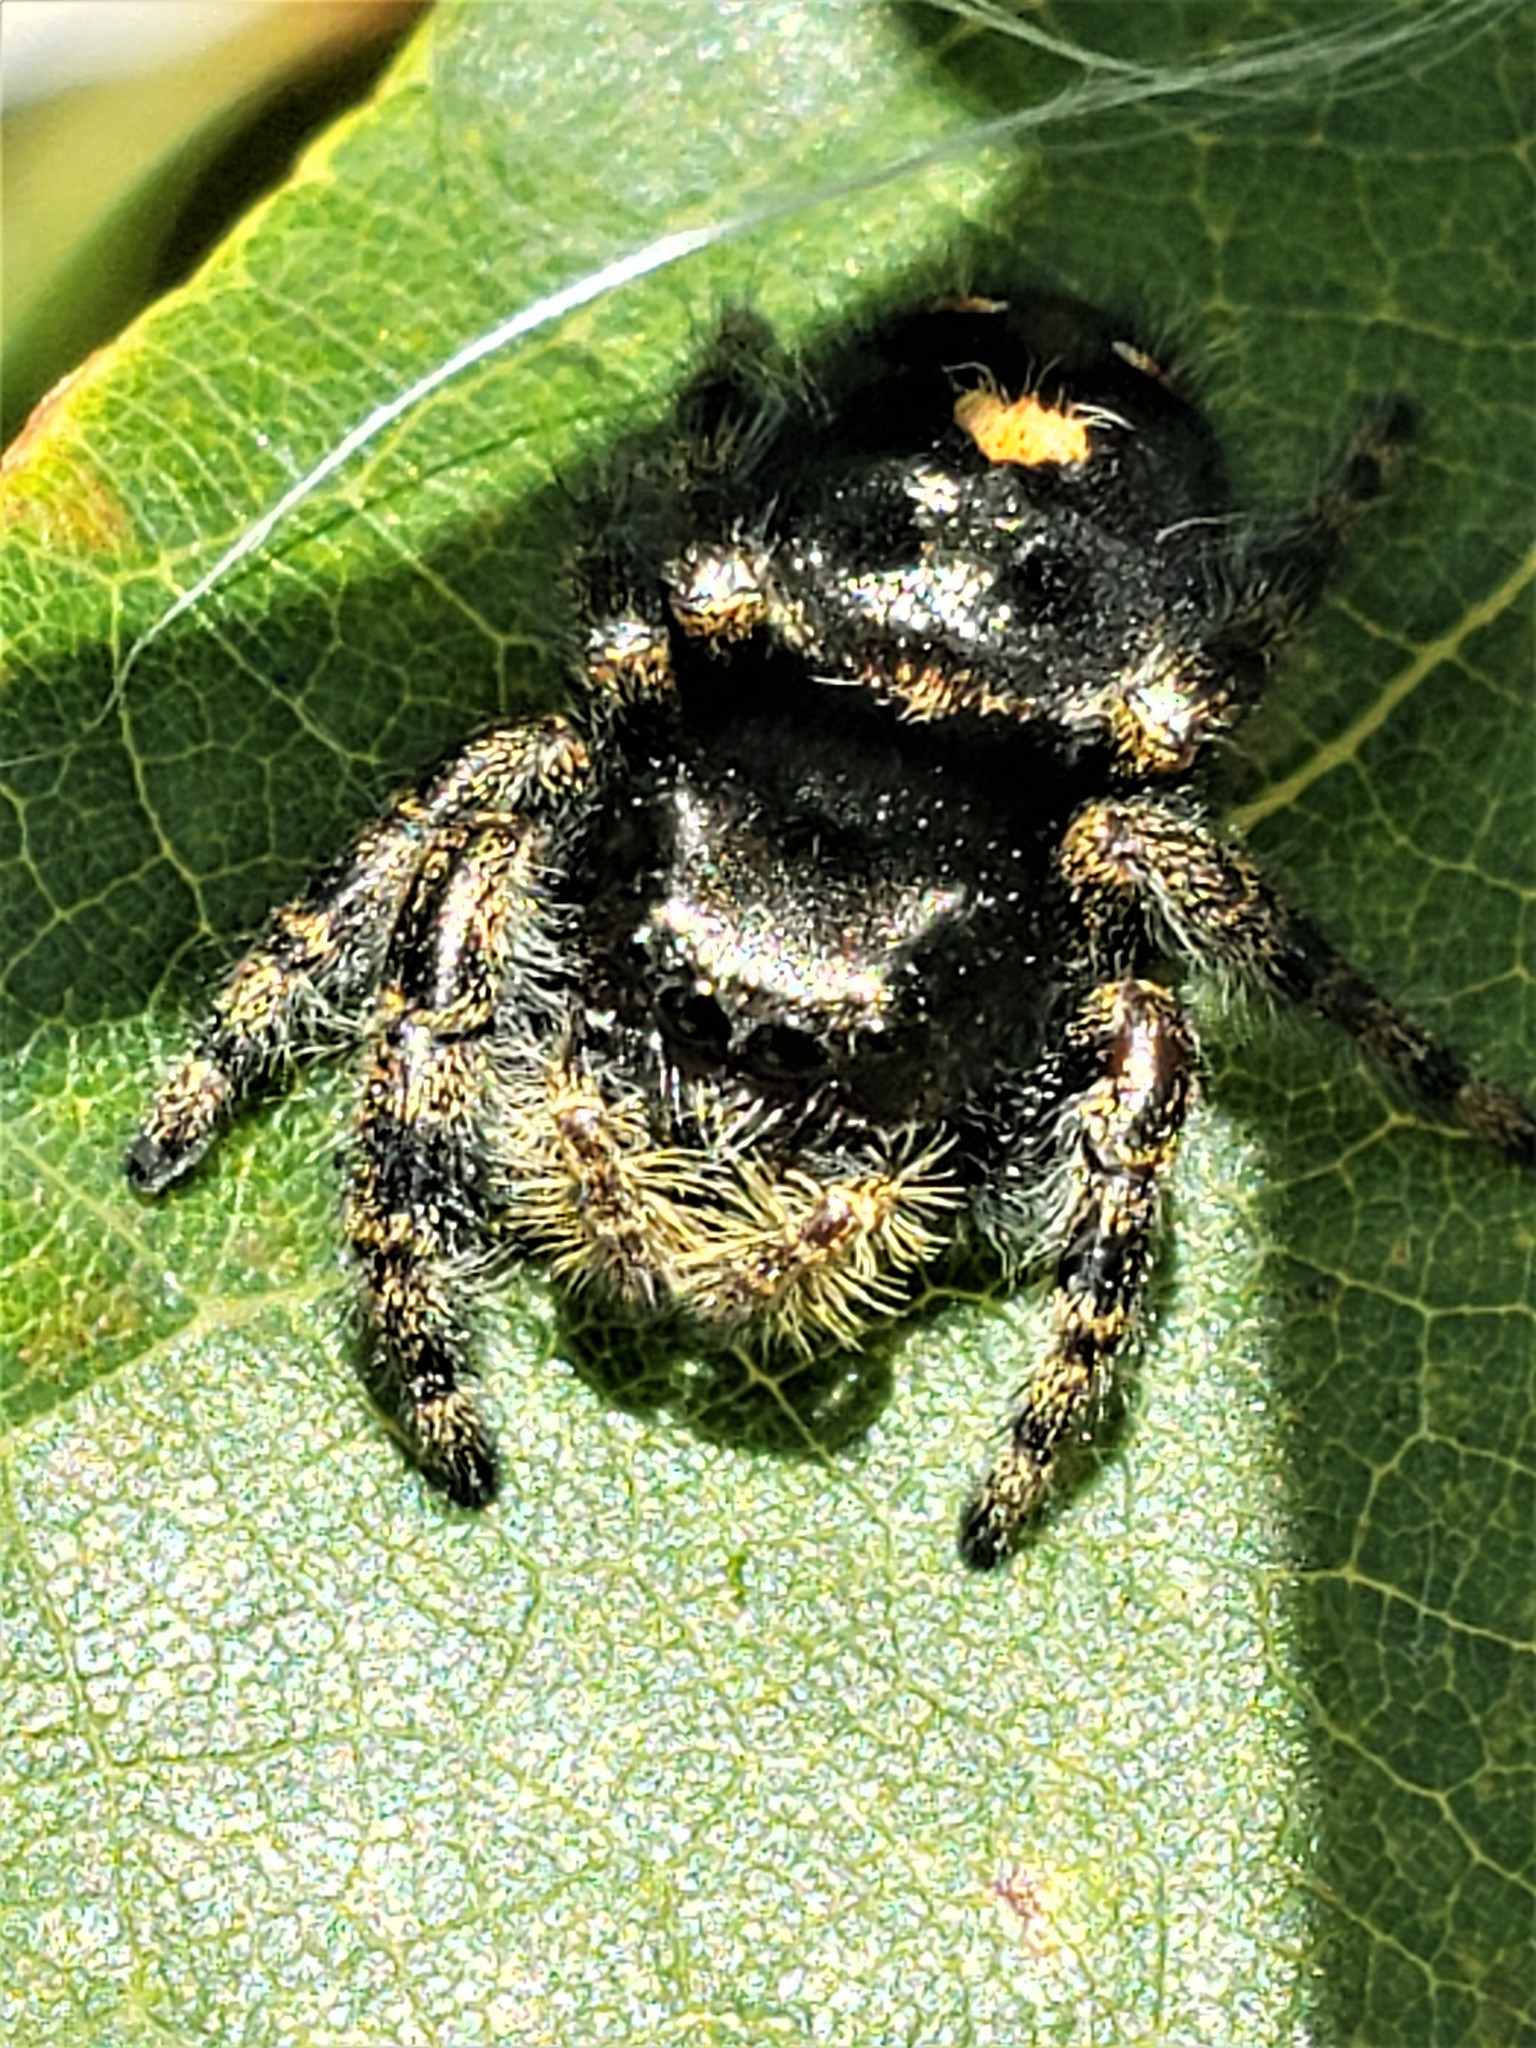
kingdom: Animalia
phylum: Arthropoda
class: Arachnida
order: Araneae
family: Salticidae
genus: Phidippus
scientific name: Phidippus audax
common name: Bold jumper
